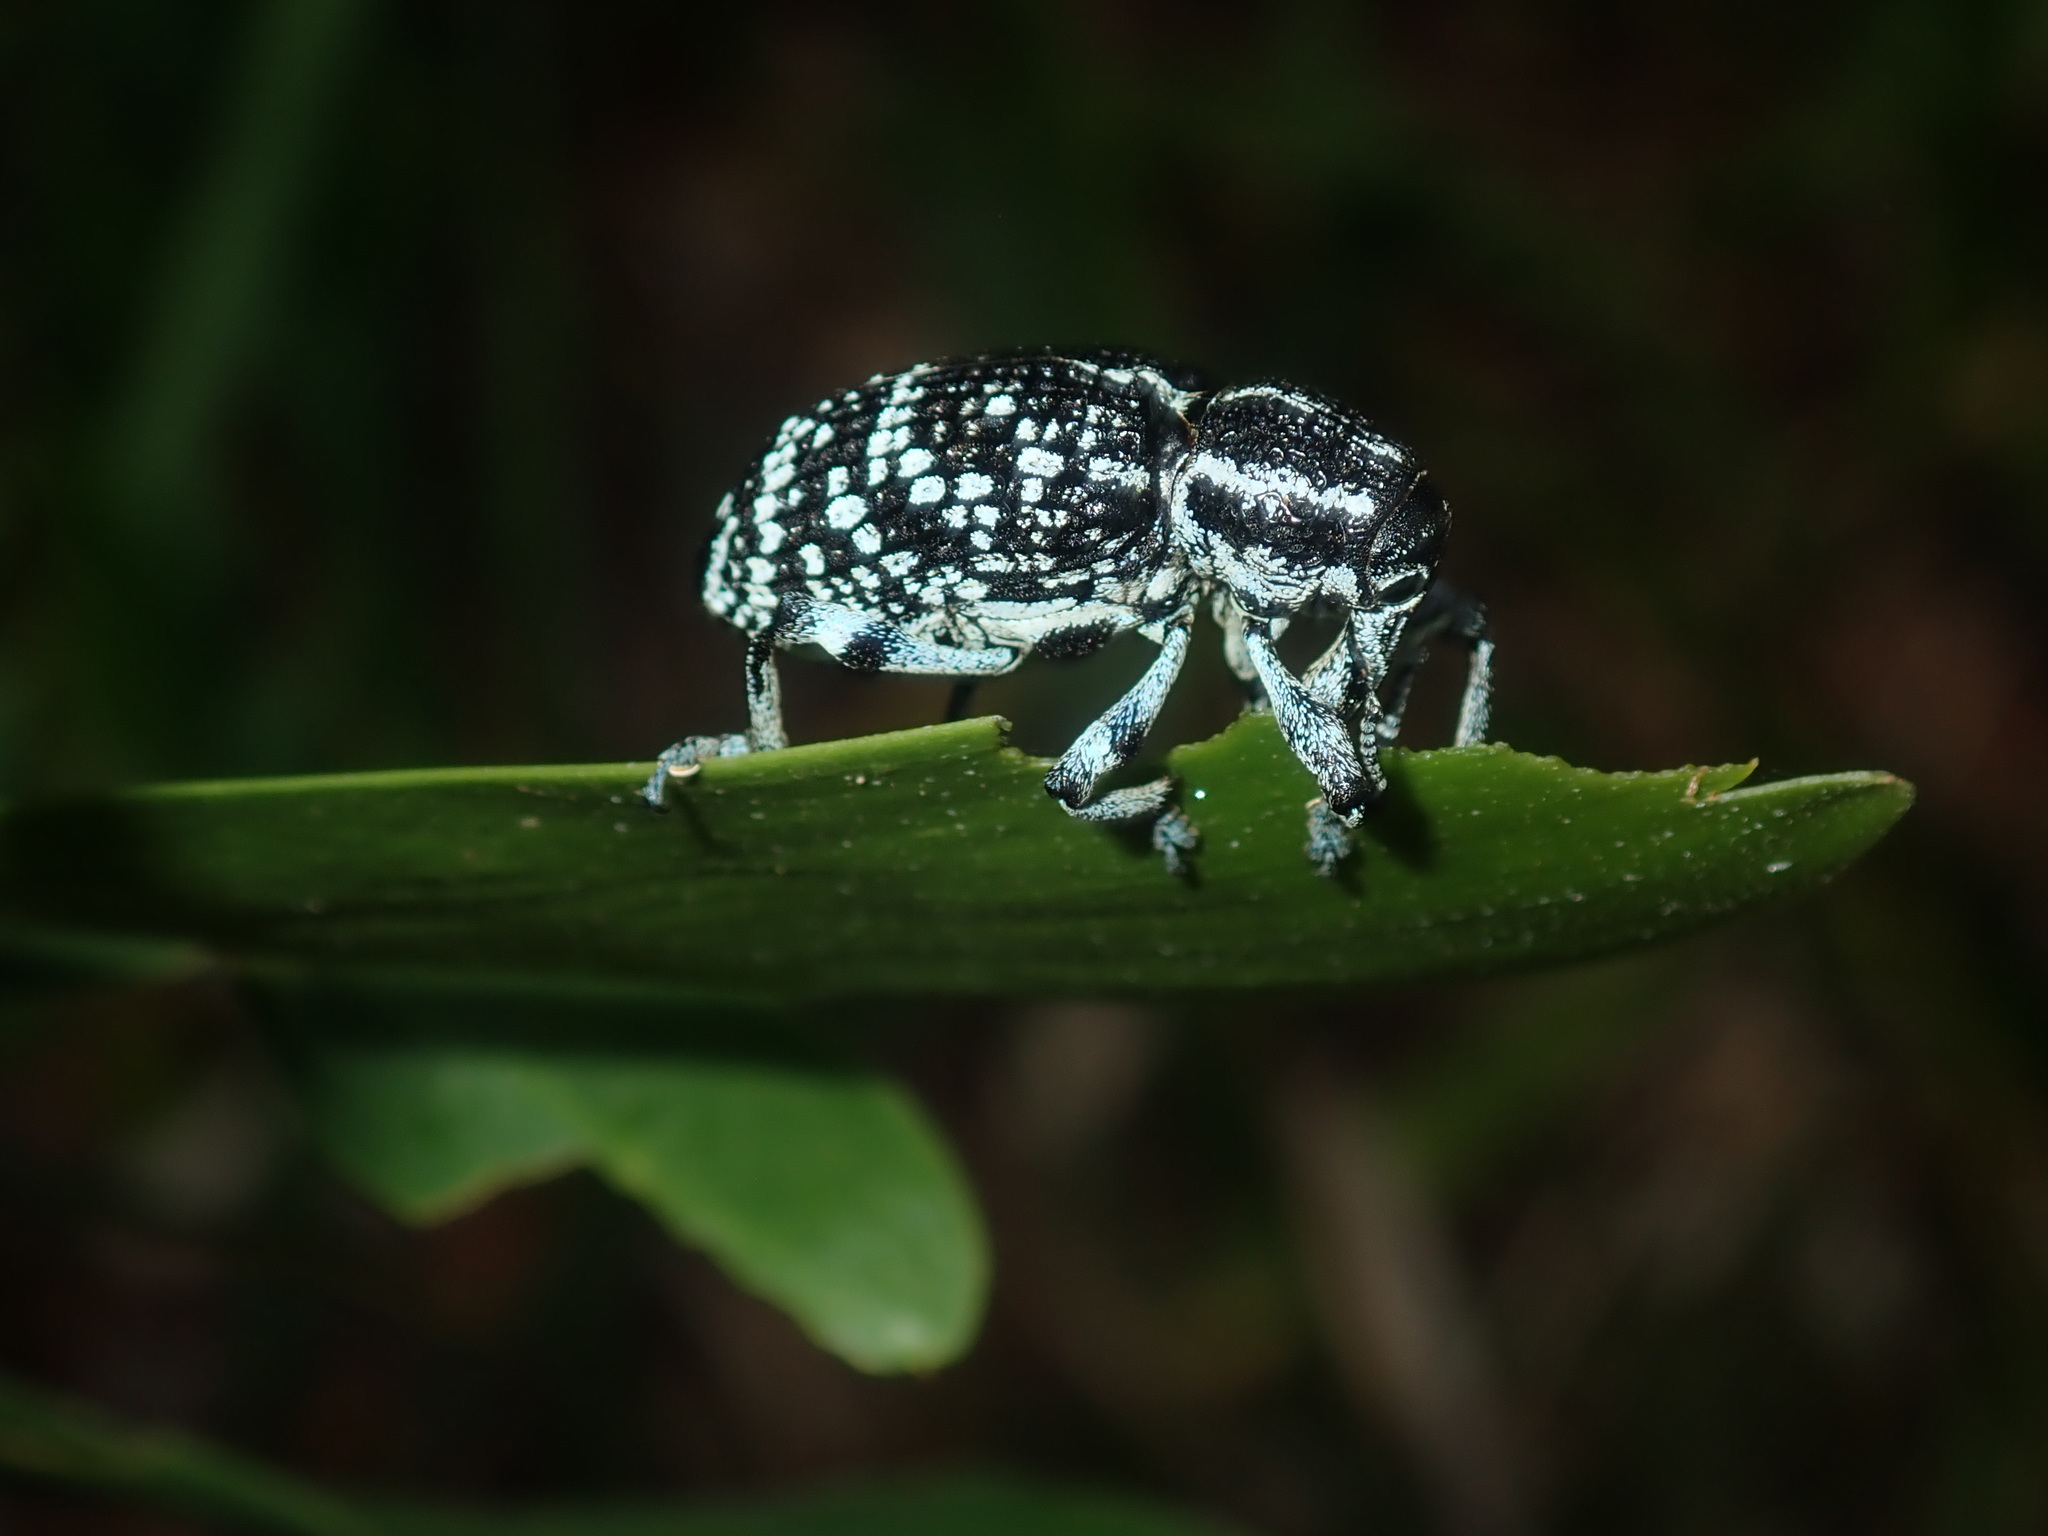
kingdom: Animalia
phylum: Arthropoda
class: Insecta
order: Coleoptera
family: Curculionidae
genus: Chrysolopus
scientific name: Chrysolopus spectabilis
